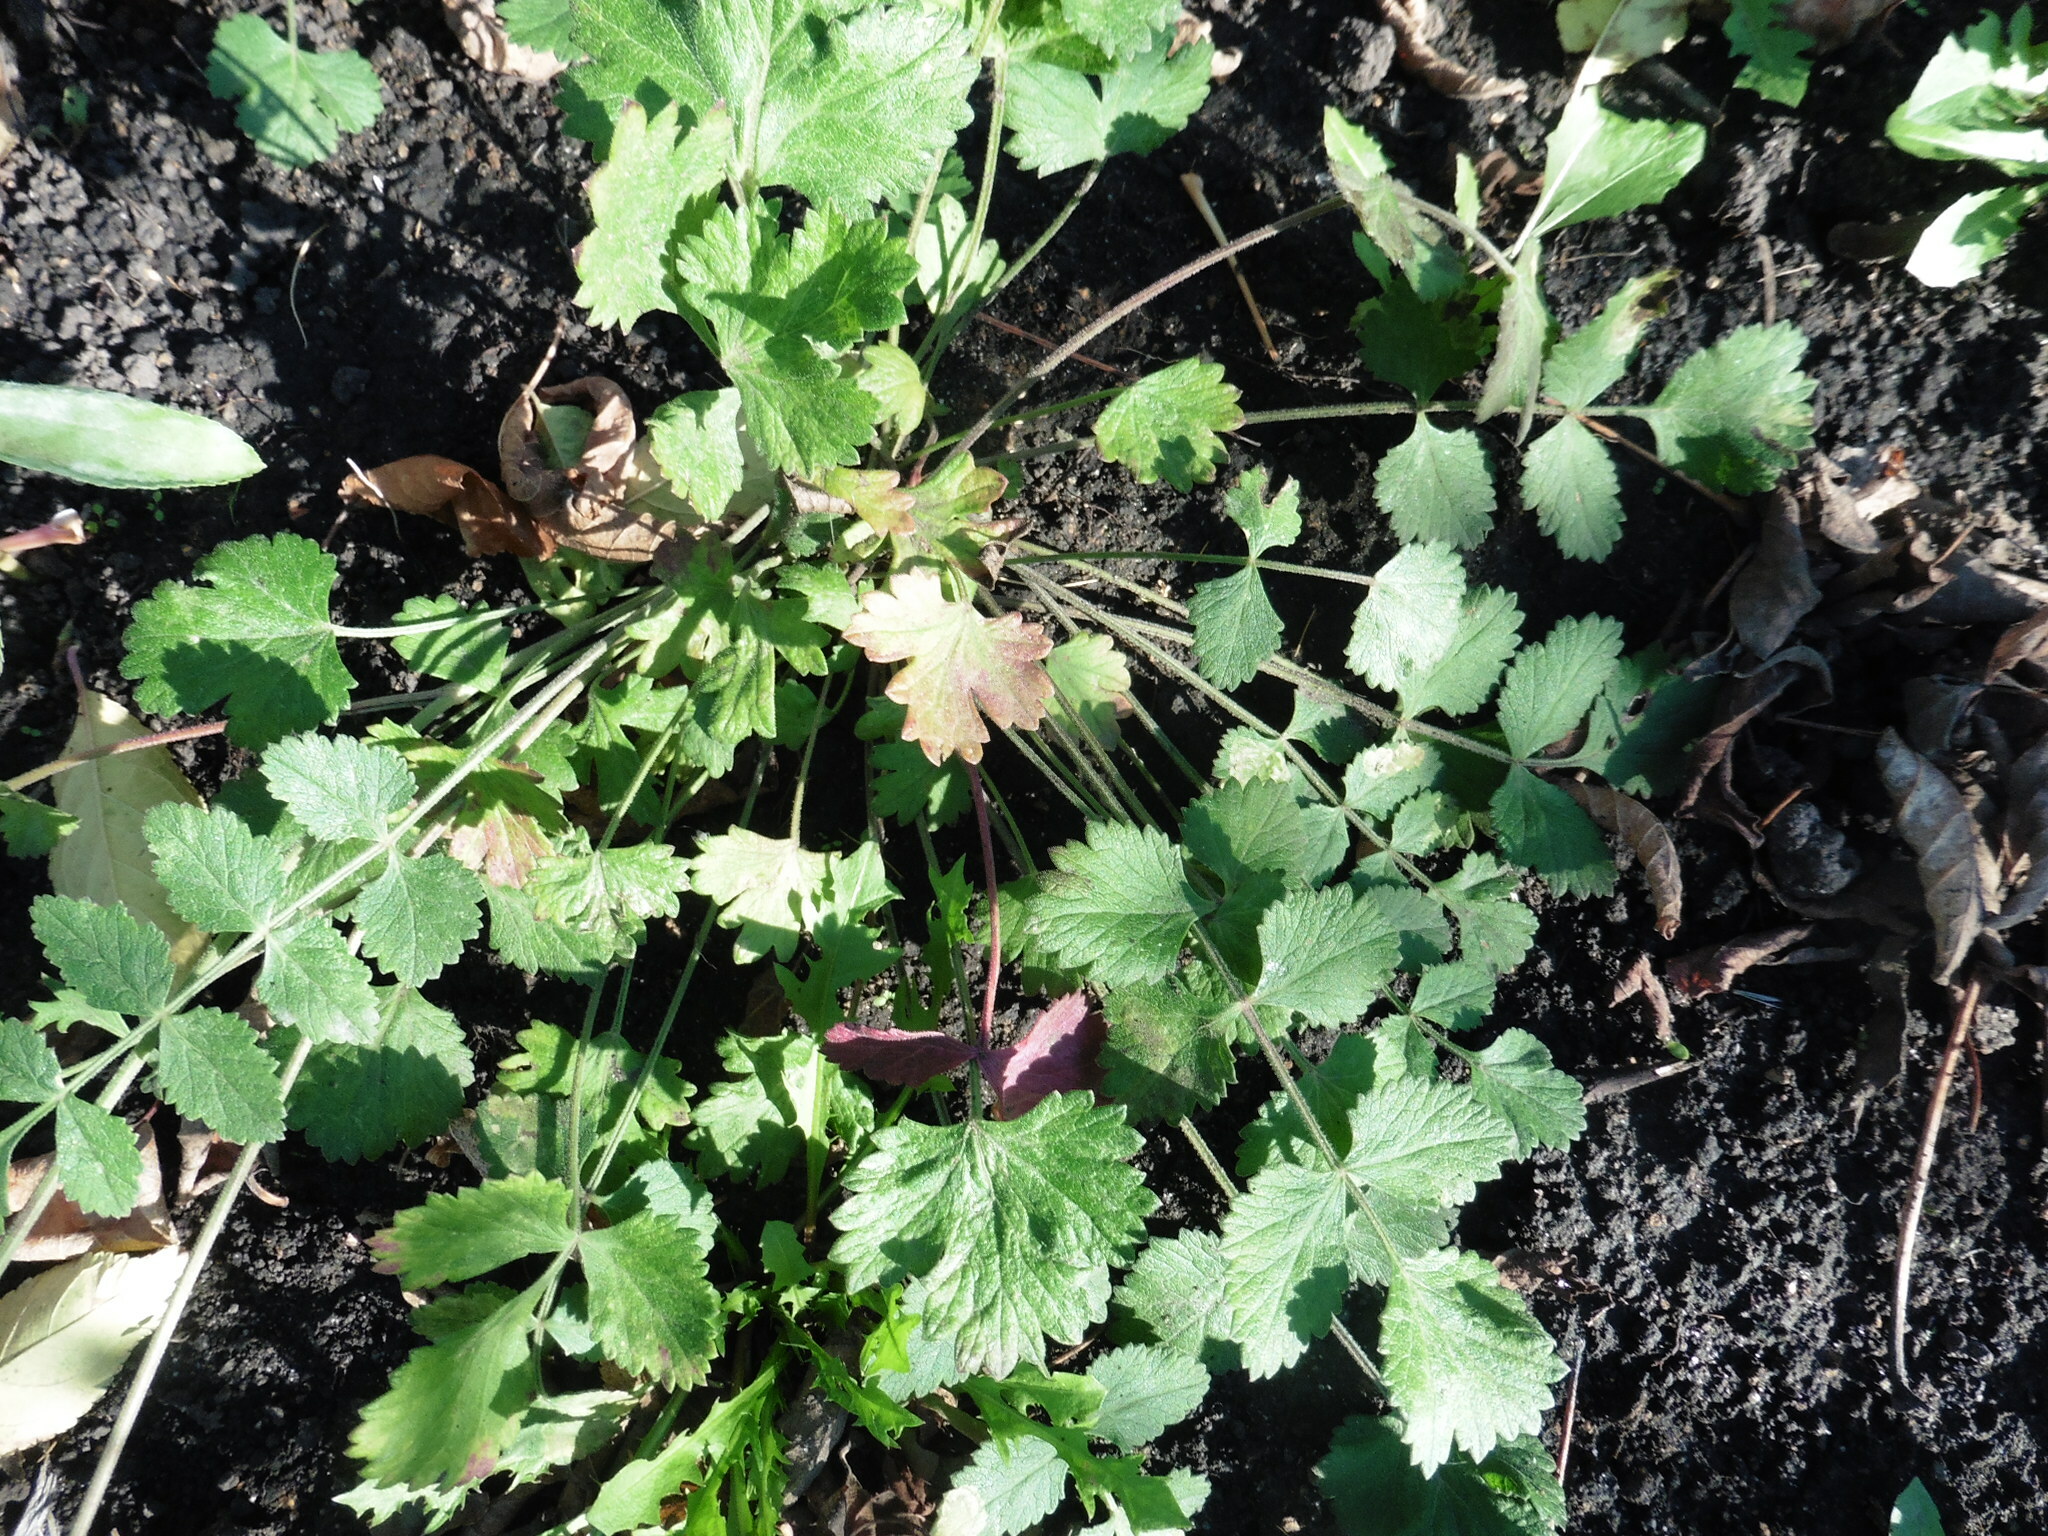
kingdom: Plantae
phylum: Tracheophyta
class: Magnoliopsida
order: Apiales
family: Apiaceae
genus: Pimpinella
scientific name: Pimpinella saxifraga
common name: Burnet-saxifrage
